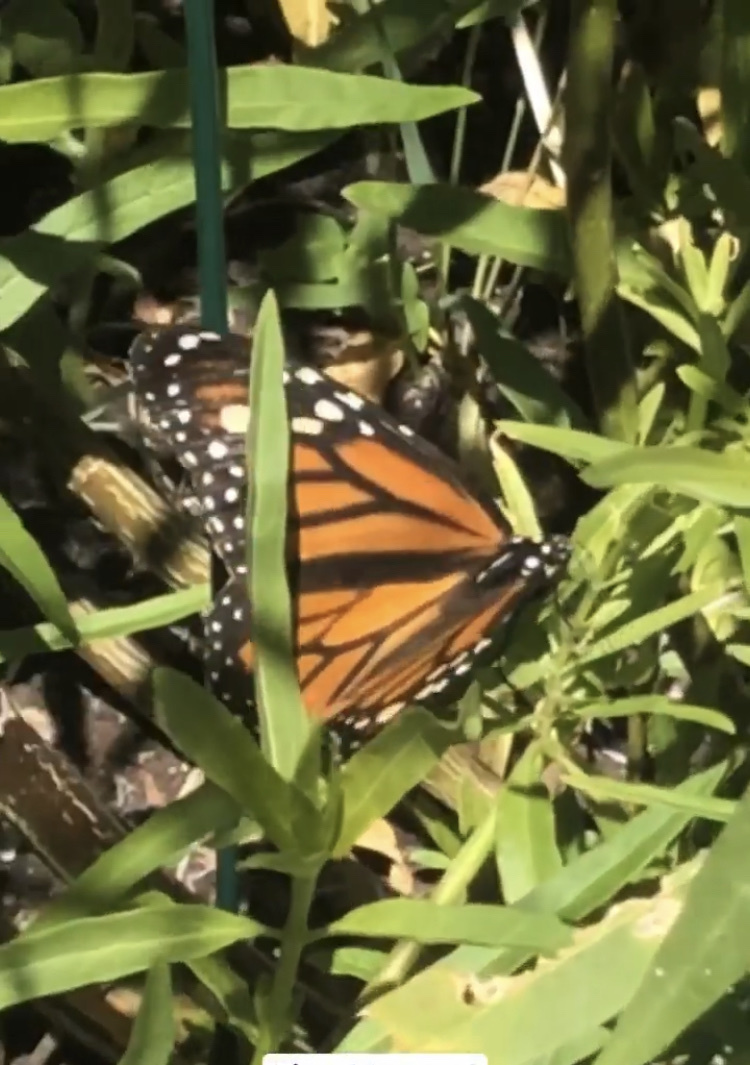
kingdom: Animalia
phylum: Arthropoda
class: Insecta
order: Lepidoptera
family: Nymphalidae
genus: Danaus
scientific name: Danaus plexippus
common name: Monarch
